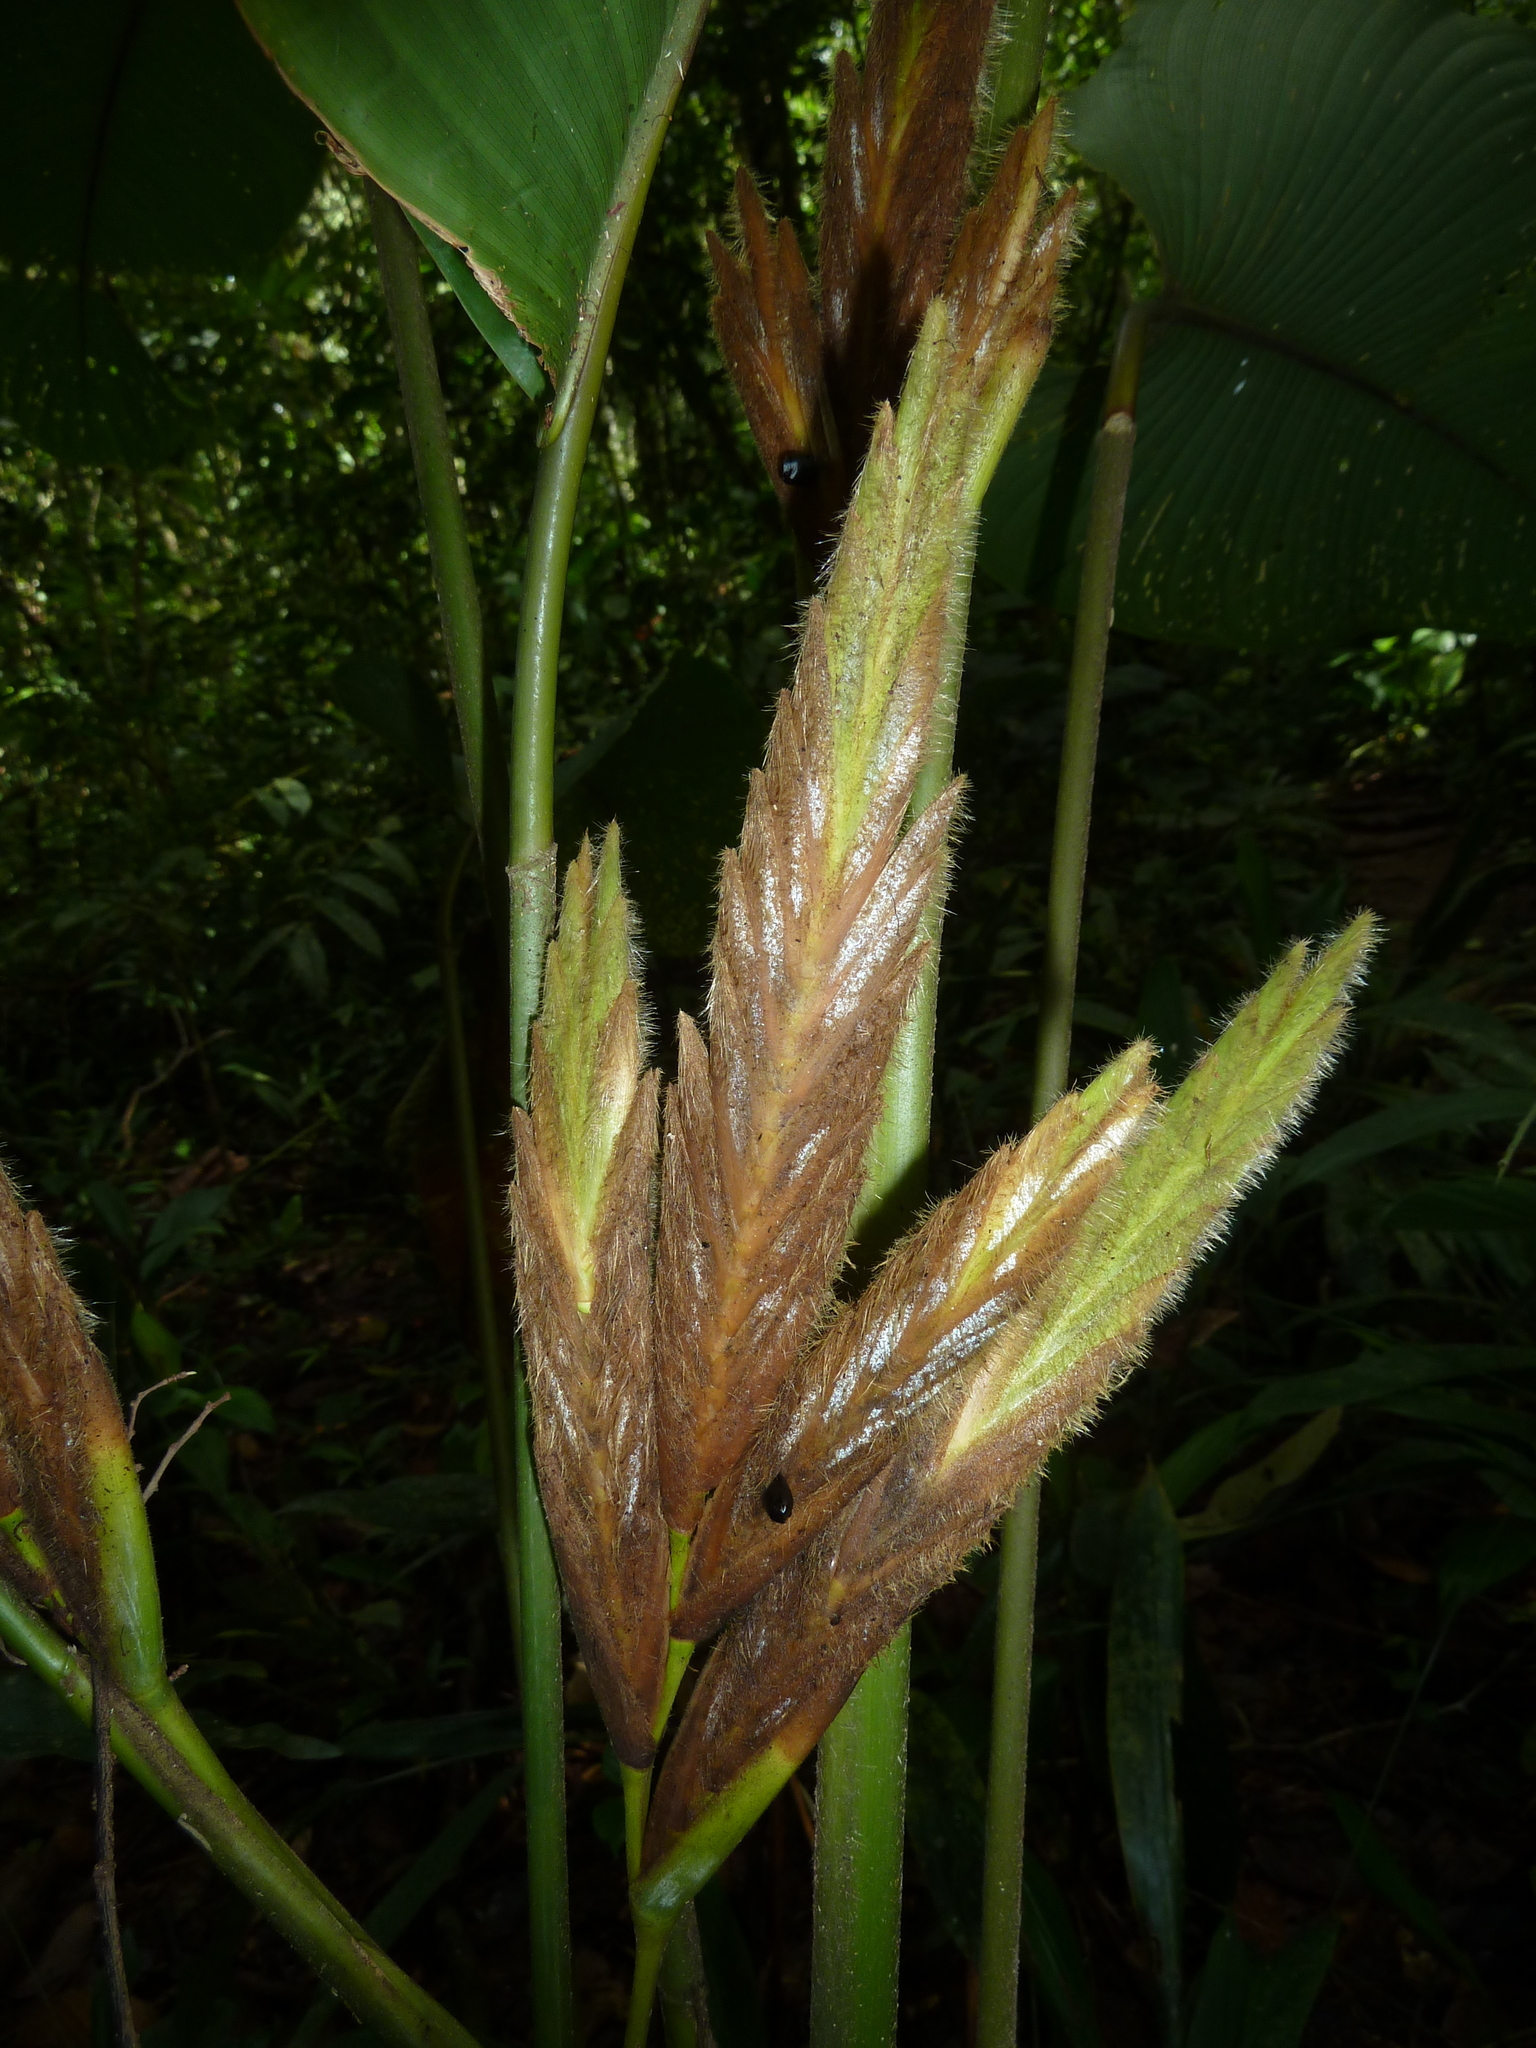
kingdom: Plantae
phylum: Tracheophyta
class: Liliopsida
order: Zingiberales
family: Marantaceae
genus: Pleiostachya
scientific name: Pleiostachya pruinosa
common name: Prayer plant
